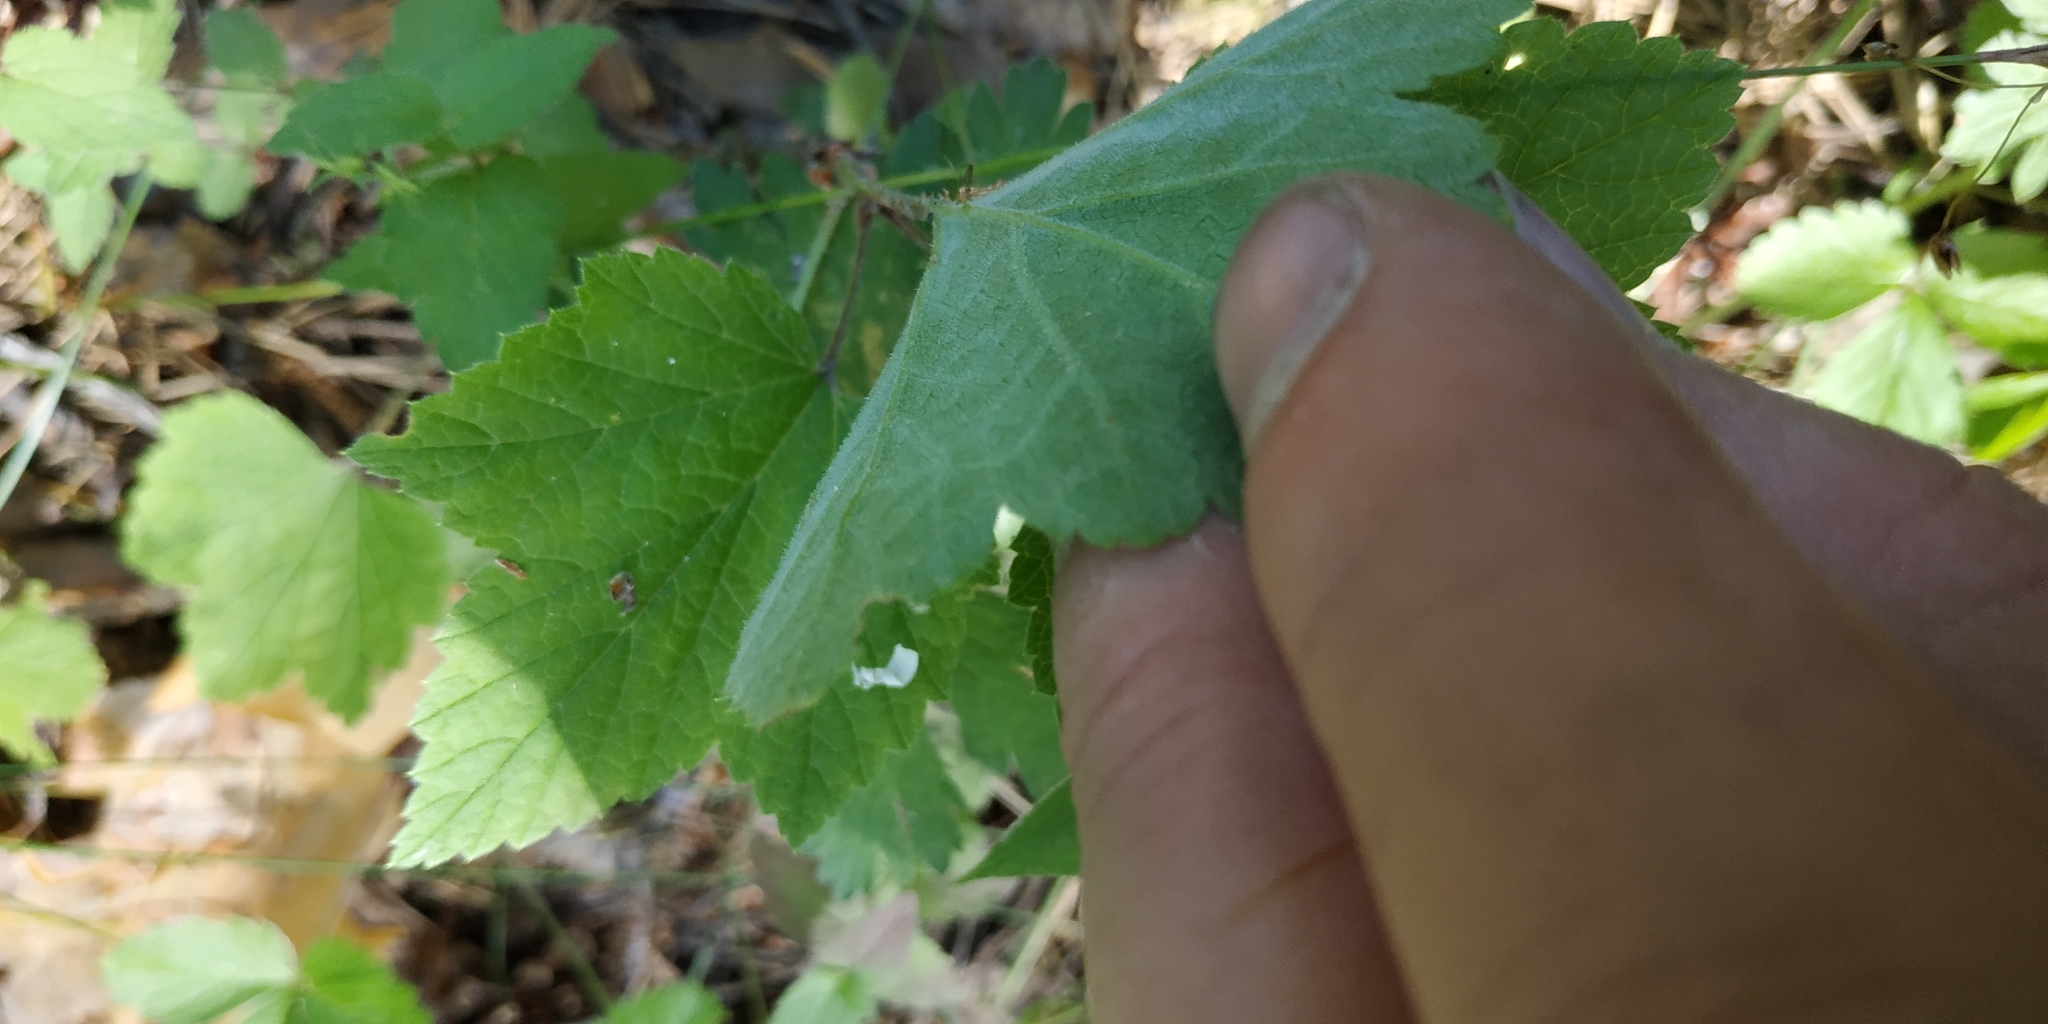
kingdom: Plantae
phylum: Tracheophyta
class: Magnoliopsida
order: Saxifragales
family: Grossulariaceae
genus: Ribes
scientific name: Ribes spicatum
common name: Downy currant
